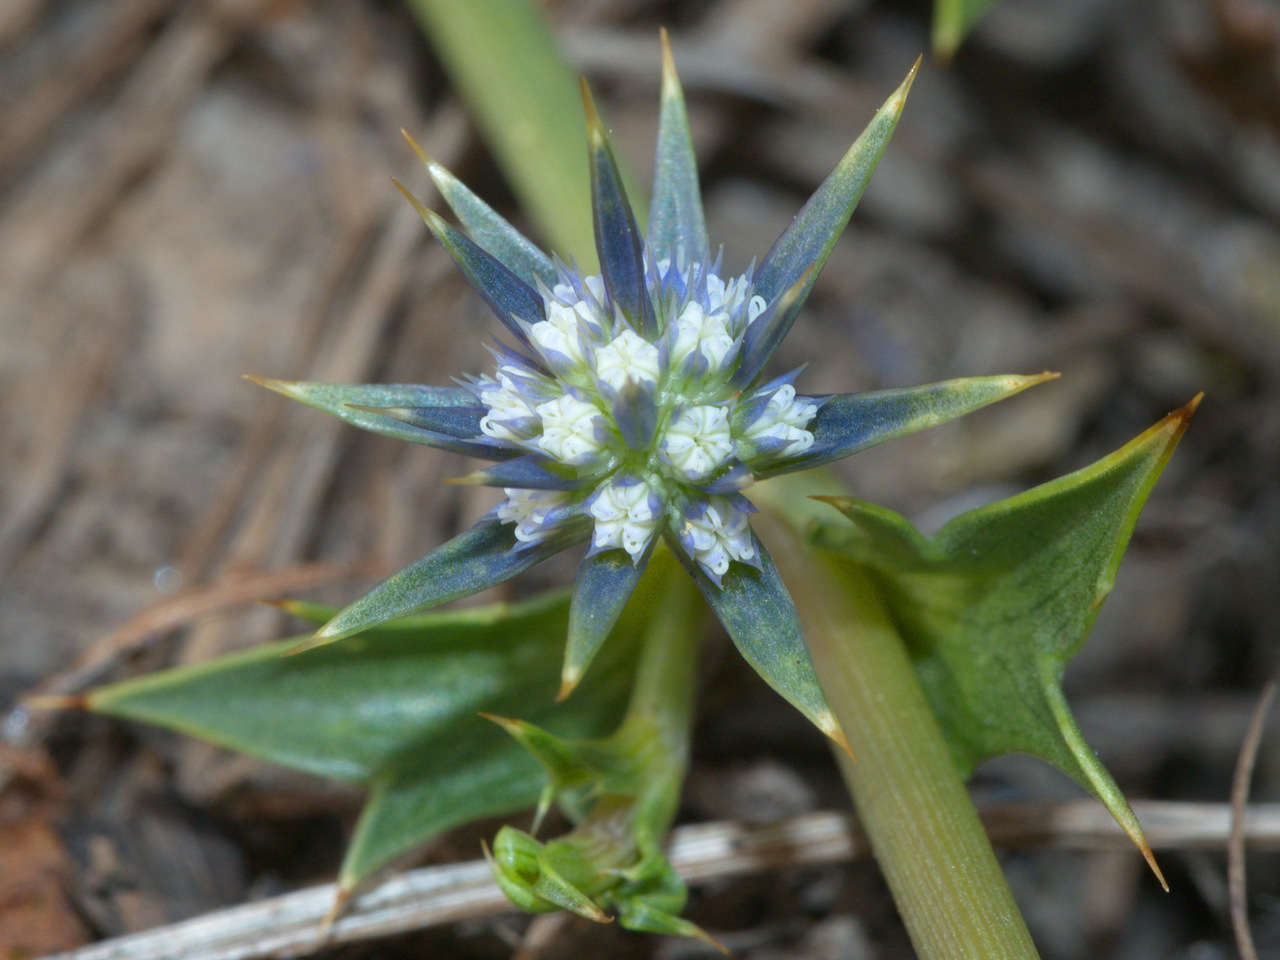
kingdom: Plantae
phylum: Tracheophyta
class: Magnoliopsida
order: Apiales
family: Apiaceae
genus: Eryngium
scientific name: Eryngium vesiculosum
